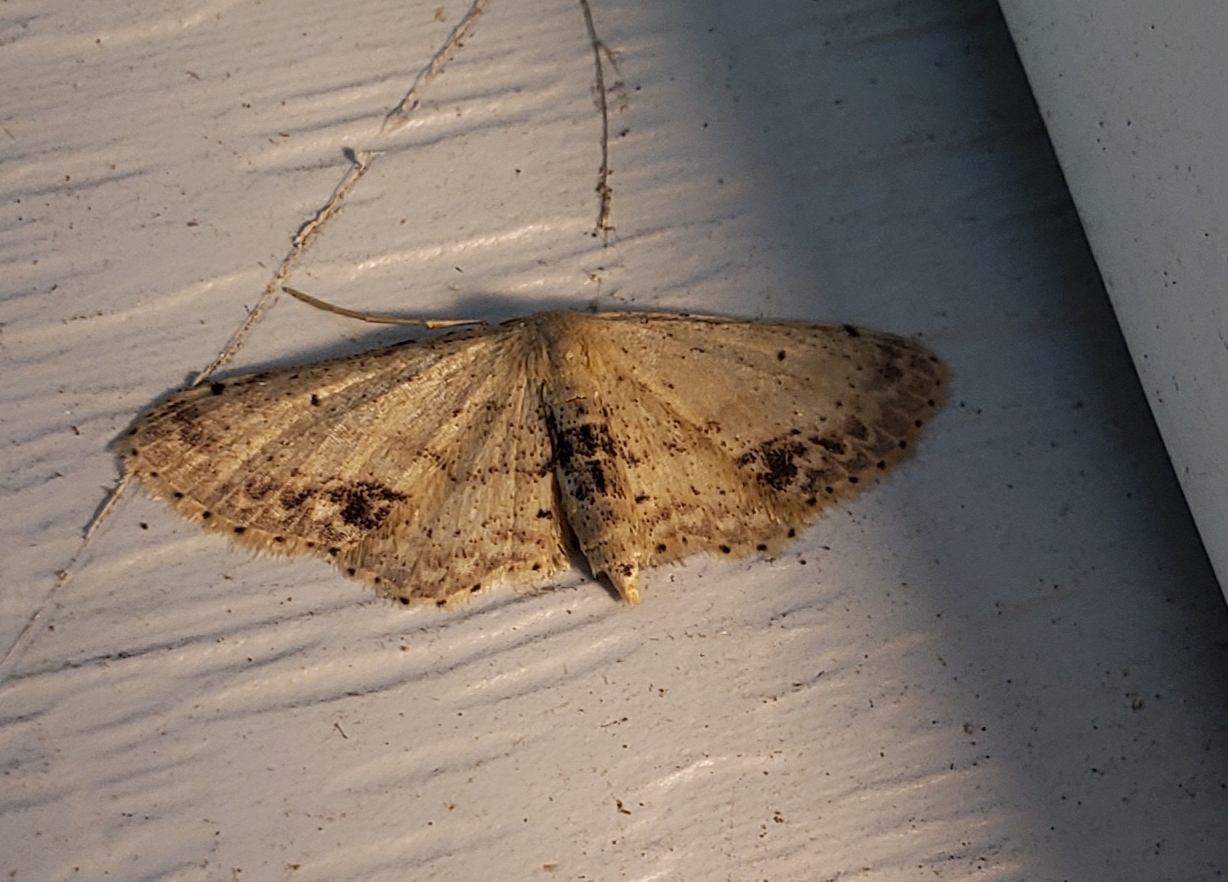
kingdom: Animalia
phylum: Arthropoda
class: Insecta
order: Lepidoptera
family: Geometridae
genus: Idaea
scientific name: Idaea dimidiata
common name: Single-dotted wave
